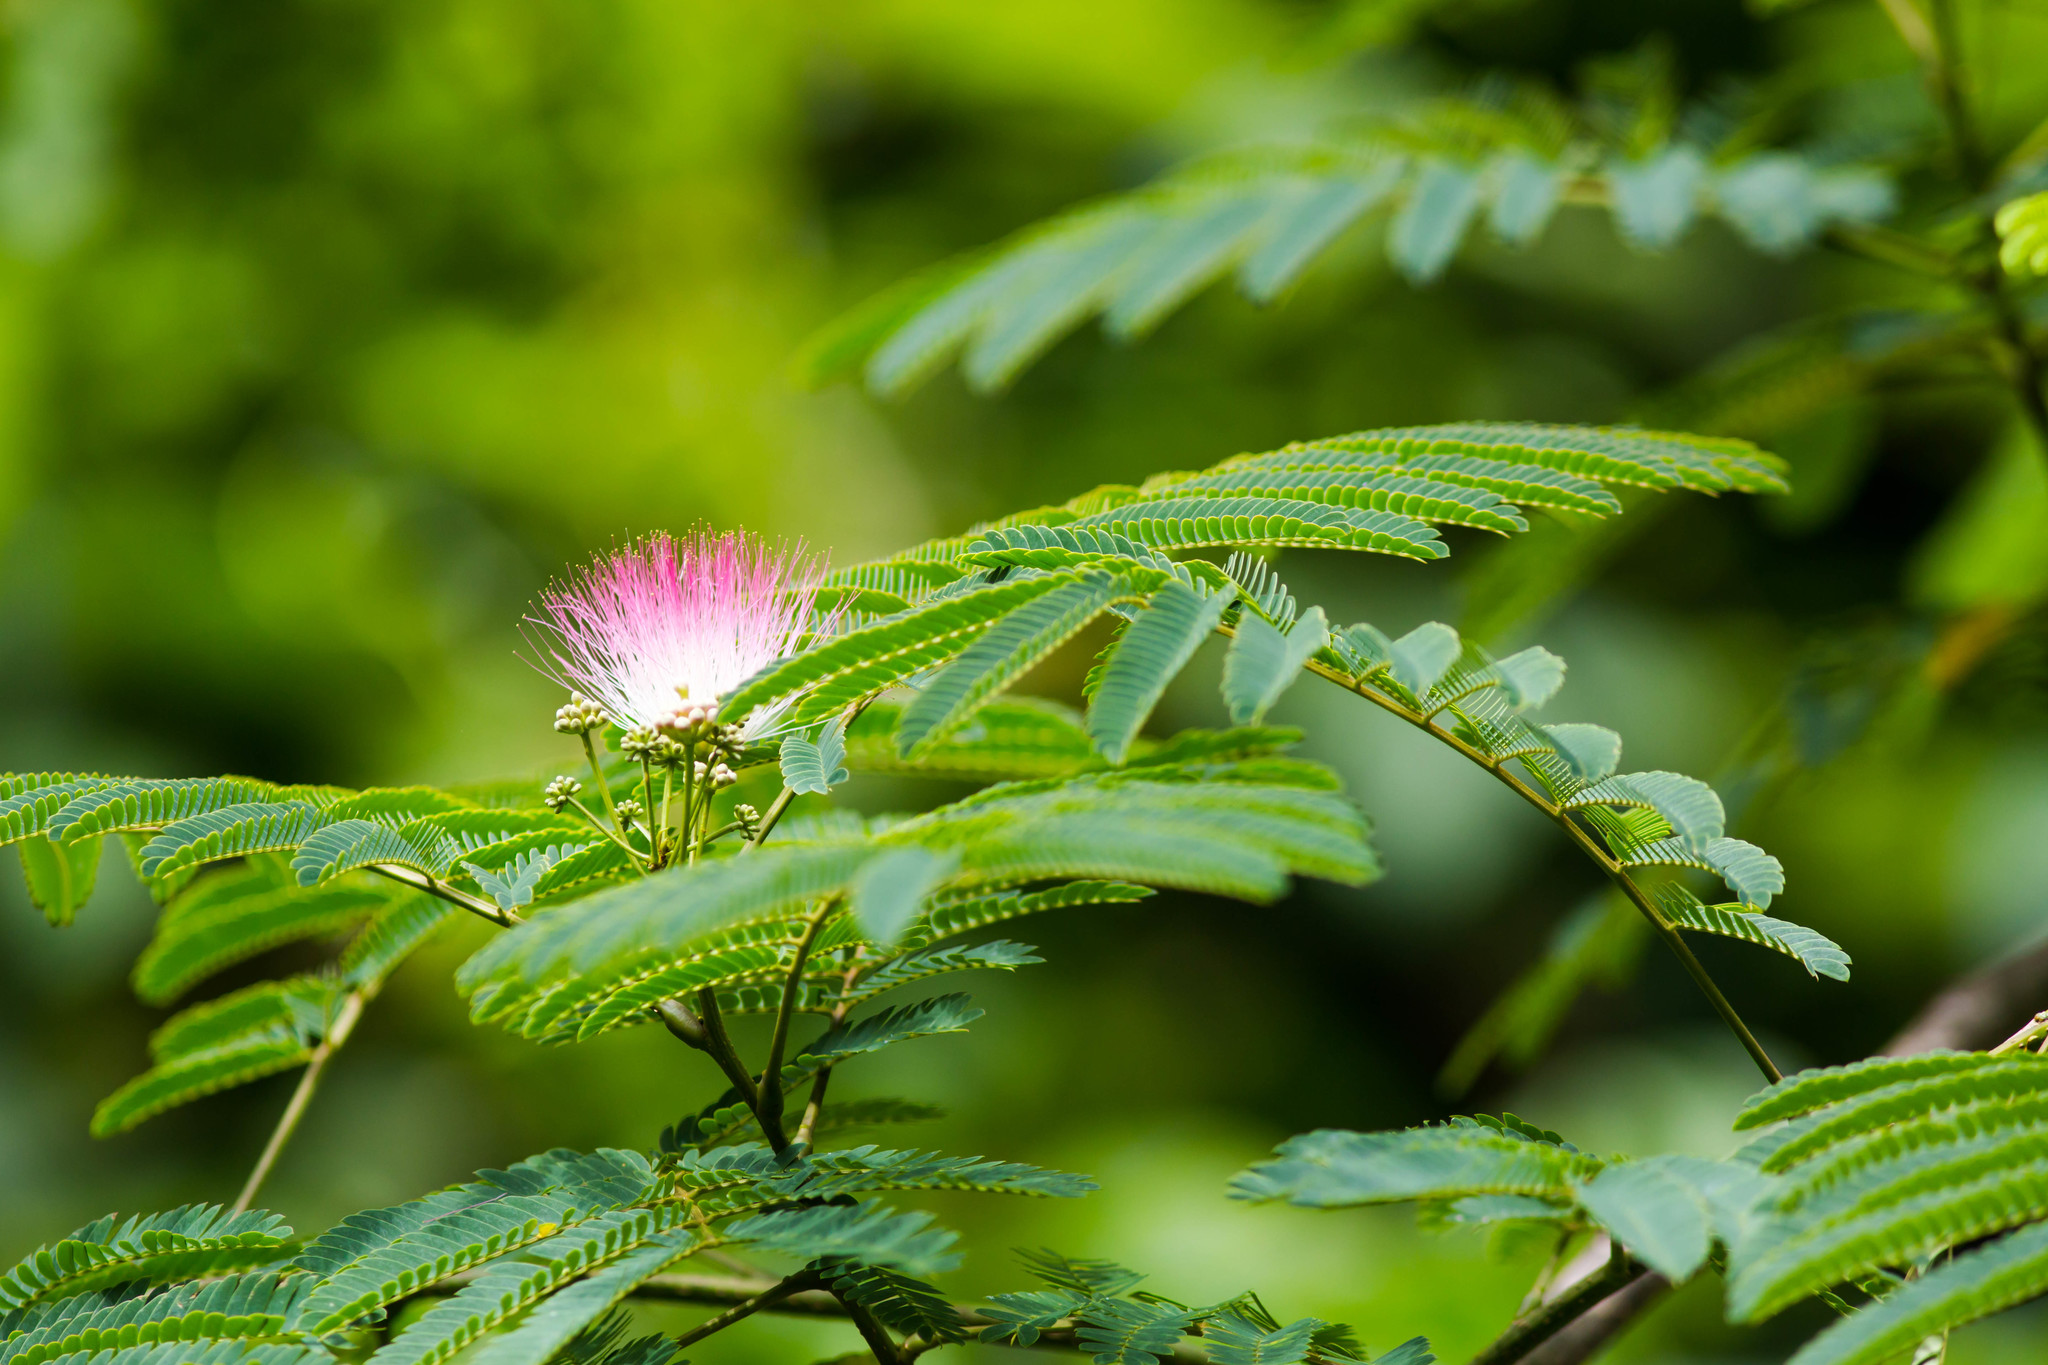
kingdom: Plantae
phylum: Tracheophyta
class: Magnoliopsida
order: Fabales
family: Fabaceae
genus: Albizia
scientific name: Albizia julibrissin
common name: Silktree
